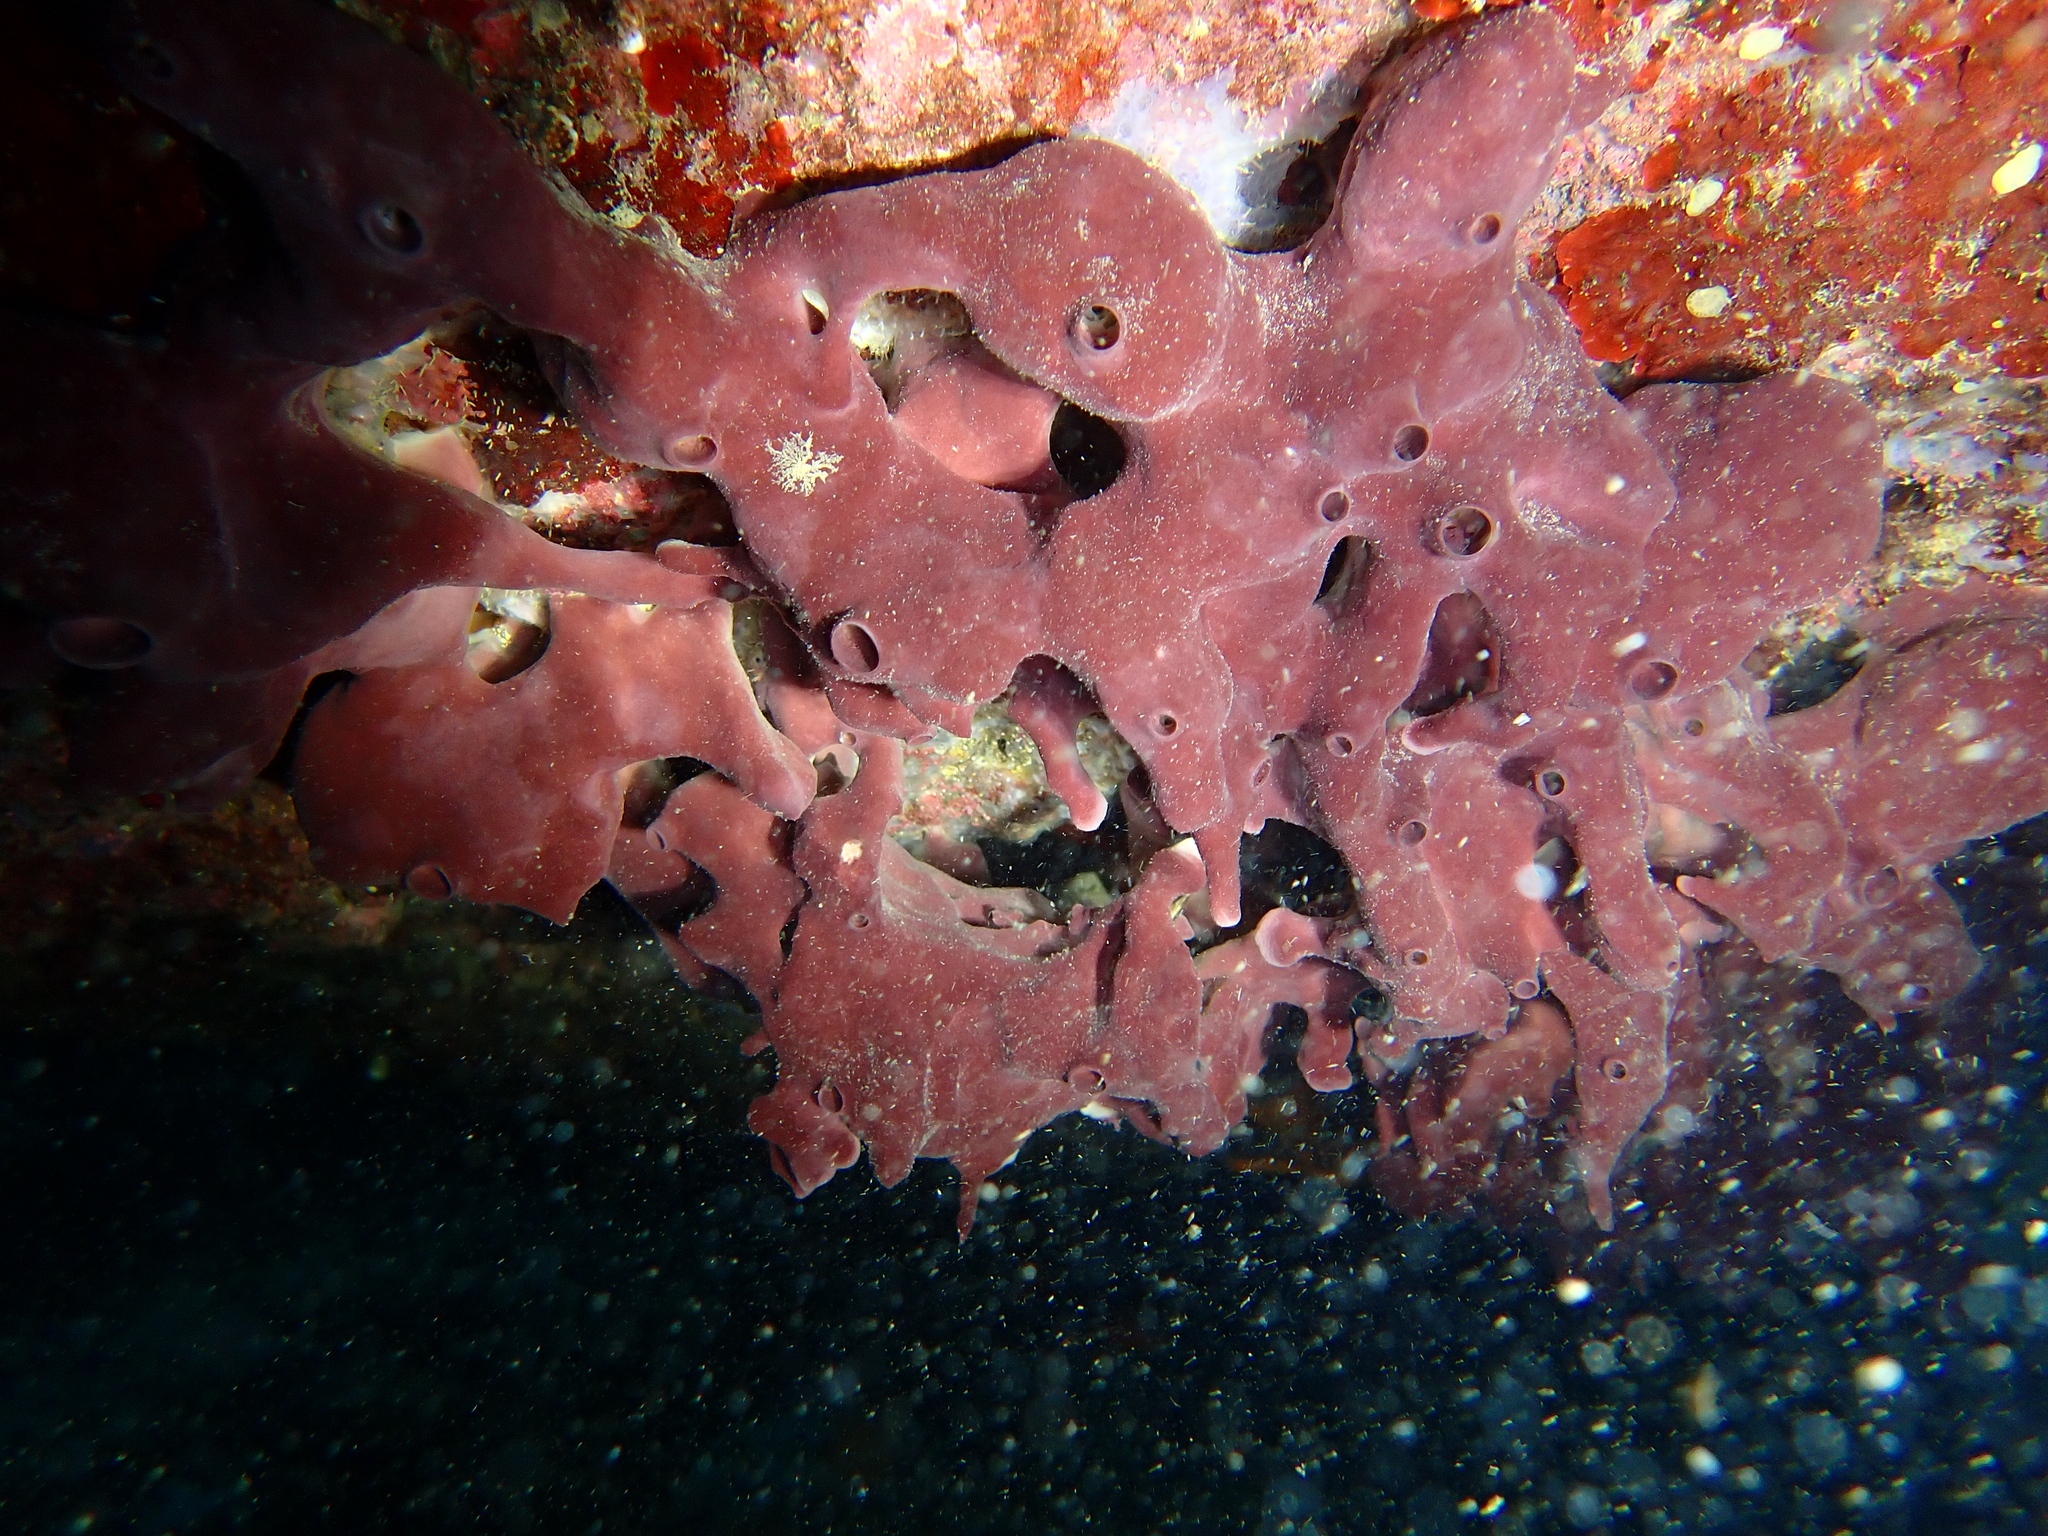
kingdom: Animalia
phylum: Porifera
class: Demospongiae
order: Haplosclerida
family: Petrosiidae
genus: Petrosia
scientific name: Petrosia ficiformis
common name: Stony sponge
